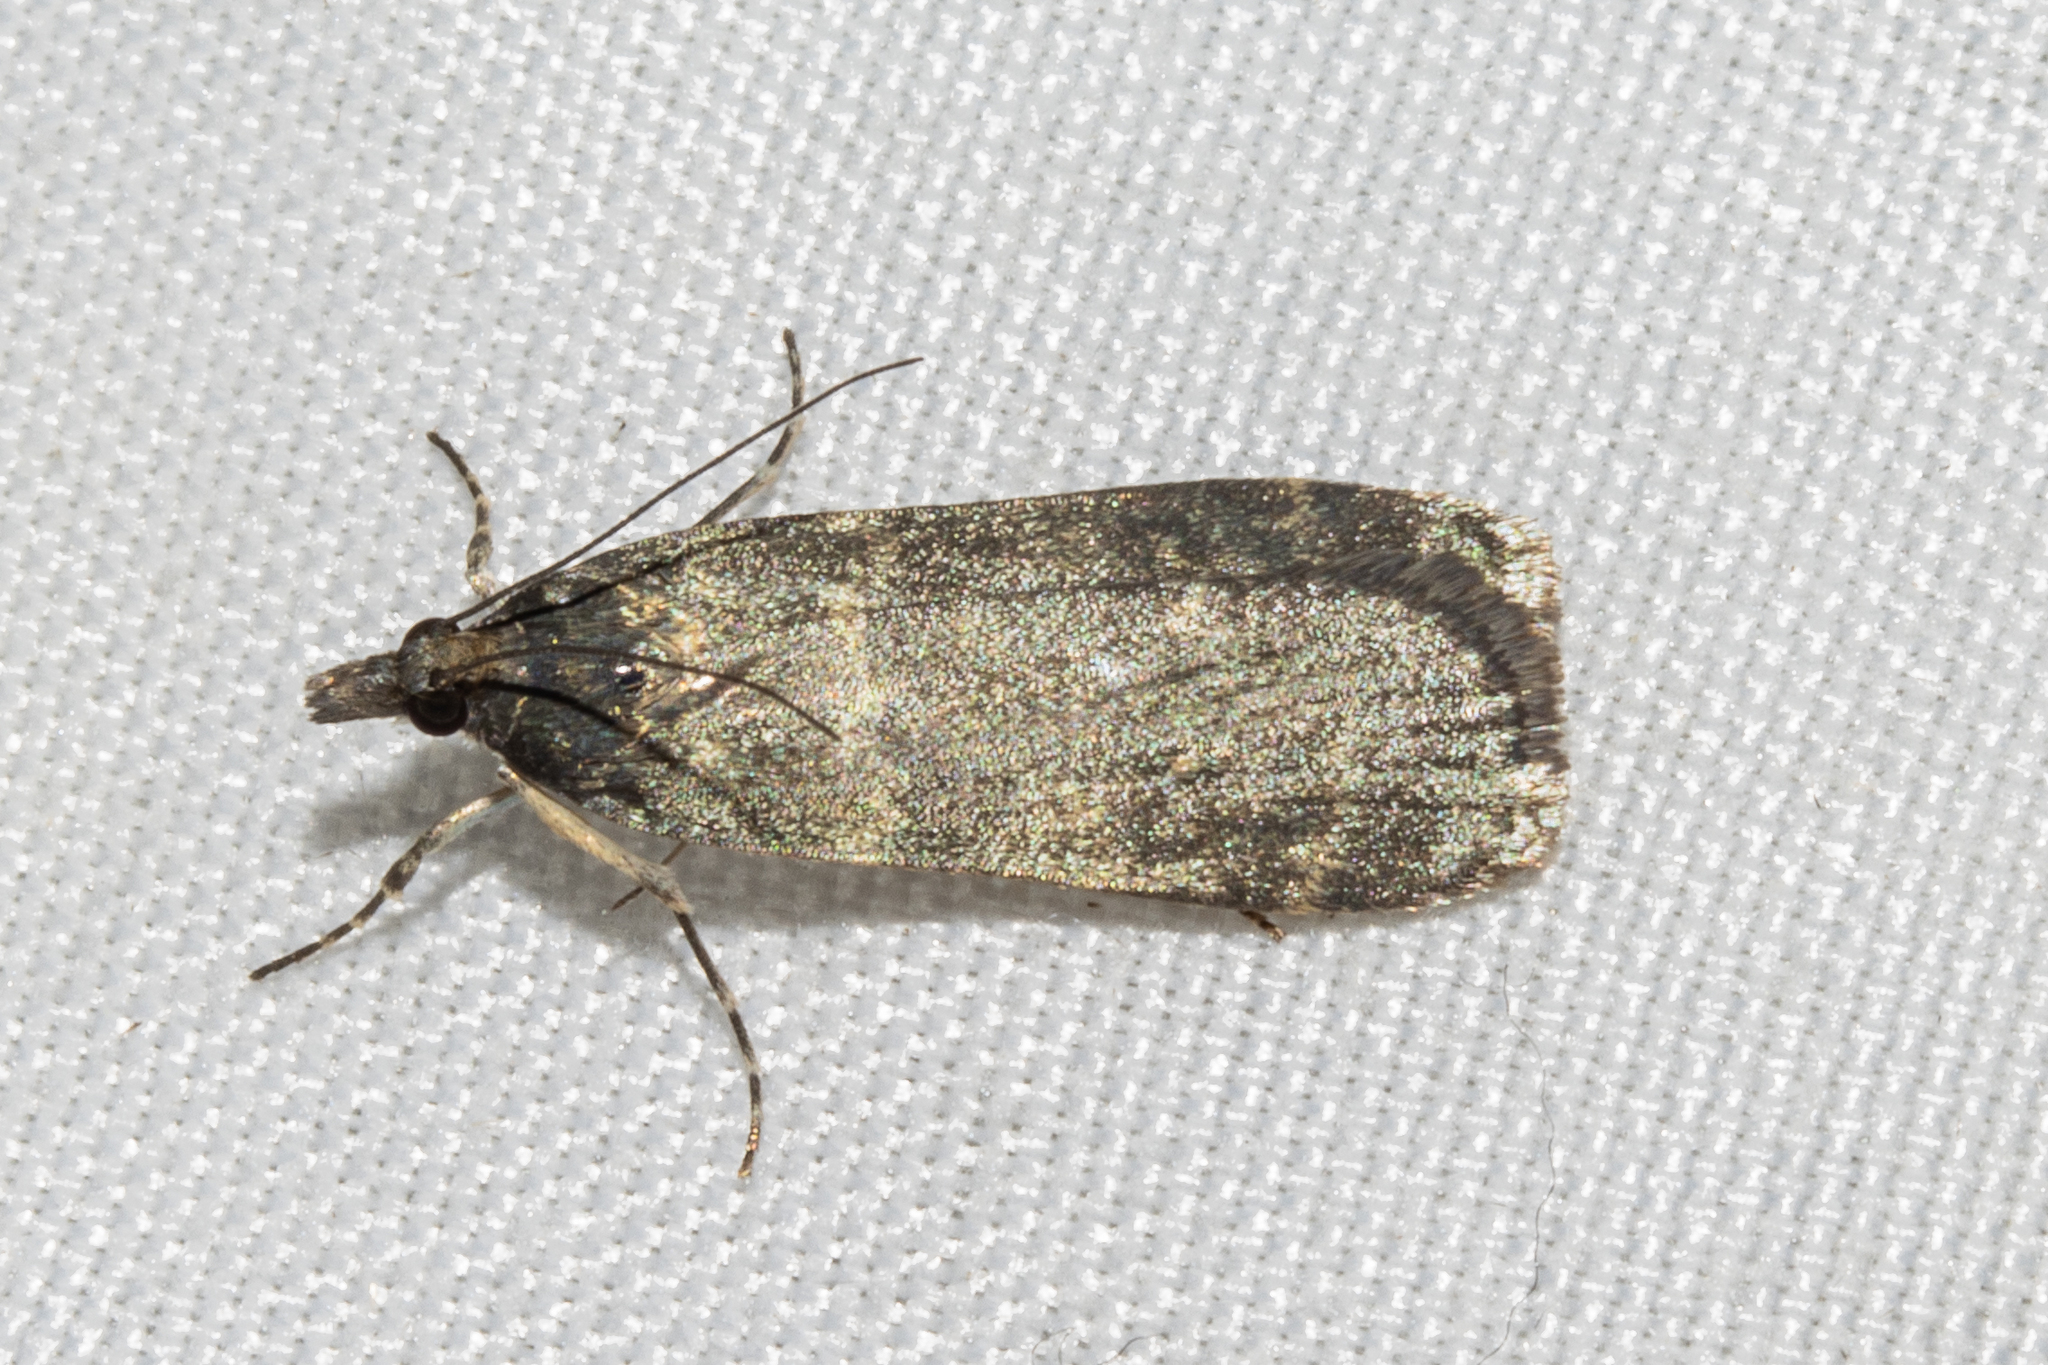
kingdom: Animalia
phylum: Arthropoda
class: Insecta
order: Lepidoptera
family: Crambidae
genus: Eudonia
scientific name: Eudonia cataxesta
